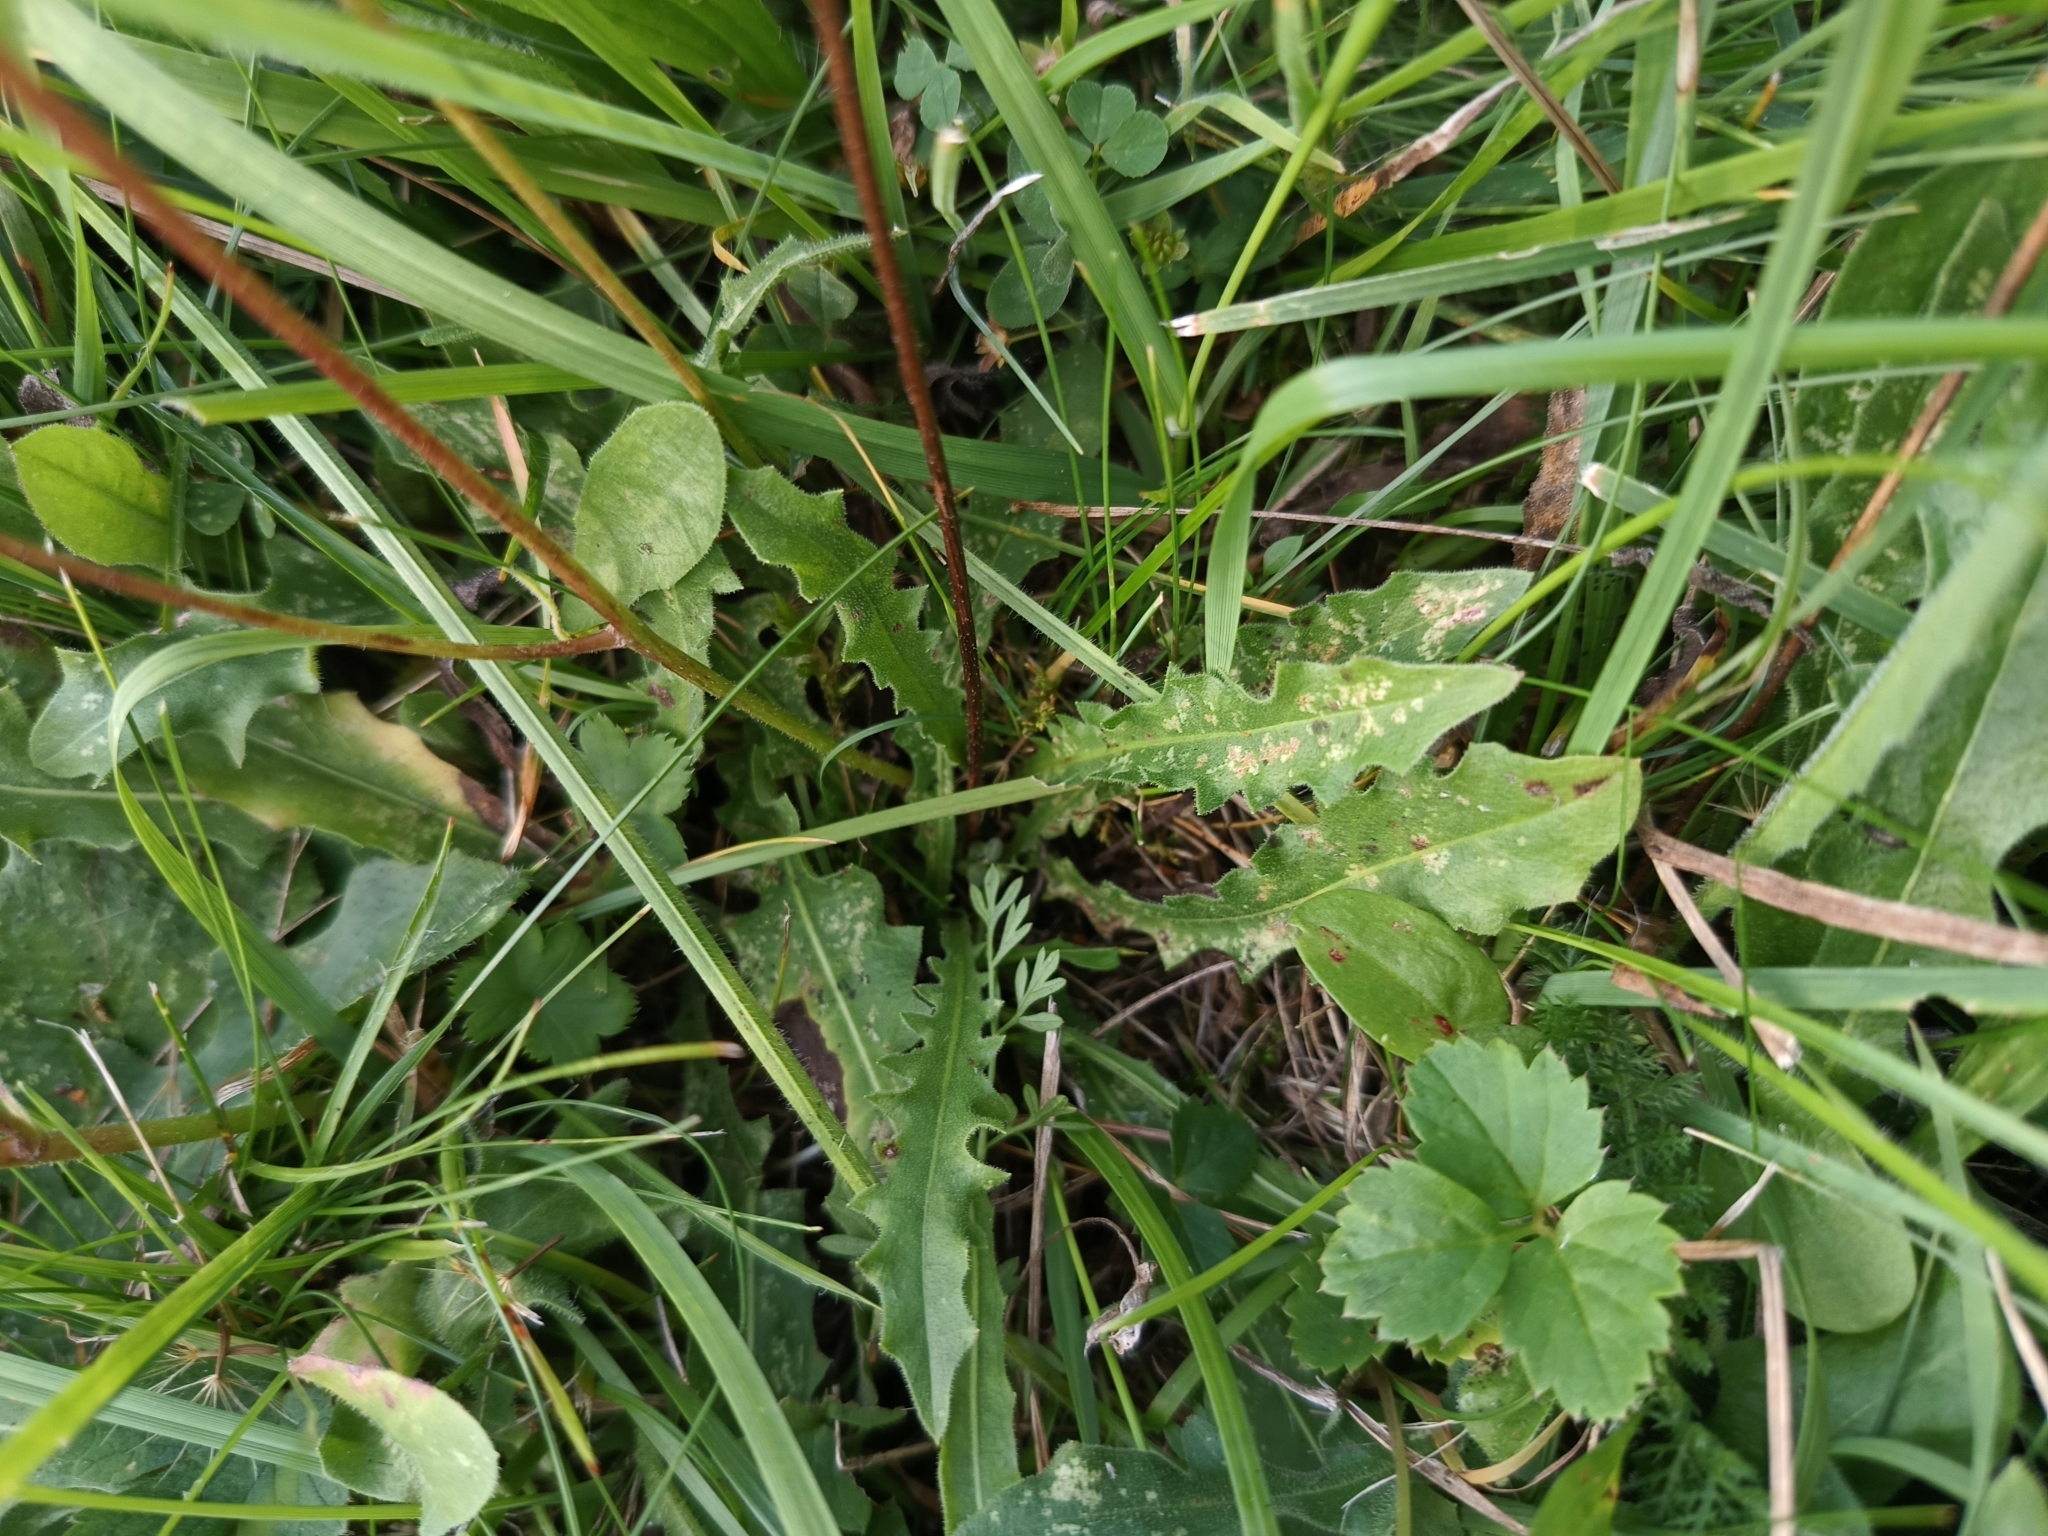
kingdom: Plantae
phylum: Tracheophyta
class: Magnoliopsida
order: Asterales
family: Asteraceae
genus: Leontodon
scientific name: Leontodon hispidus
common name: Rough hawkbit
